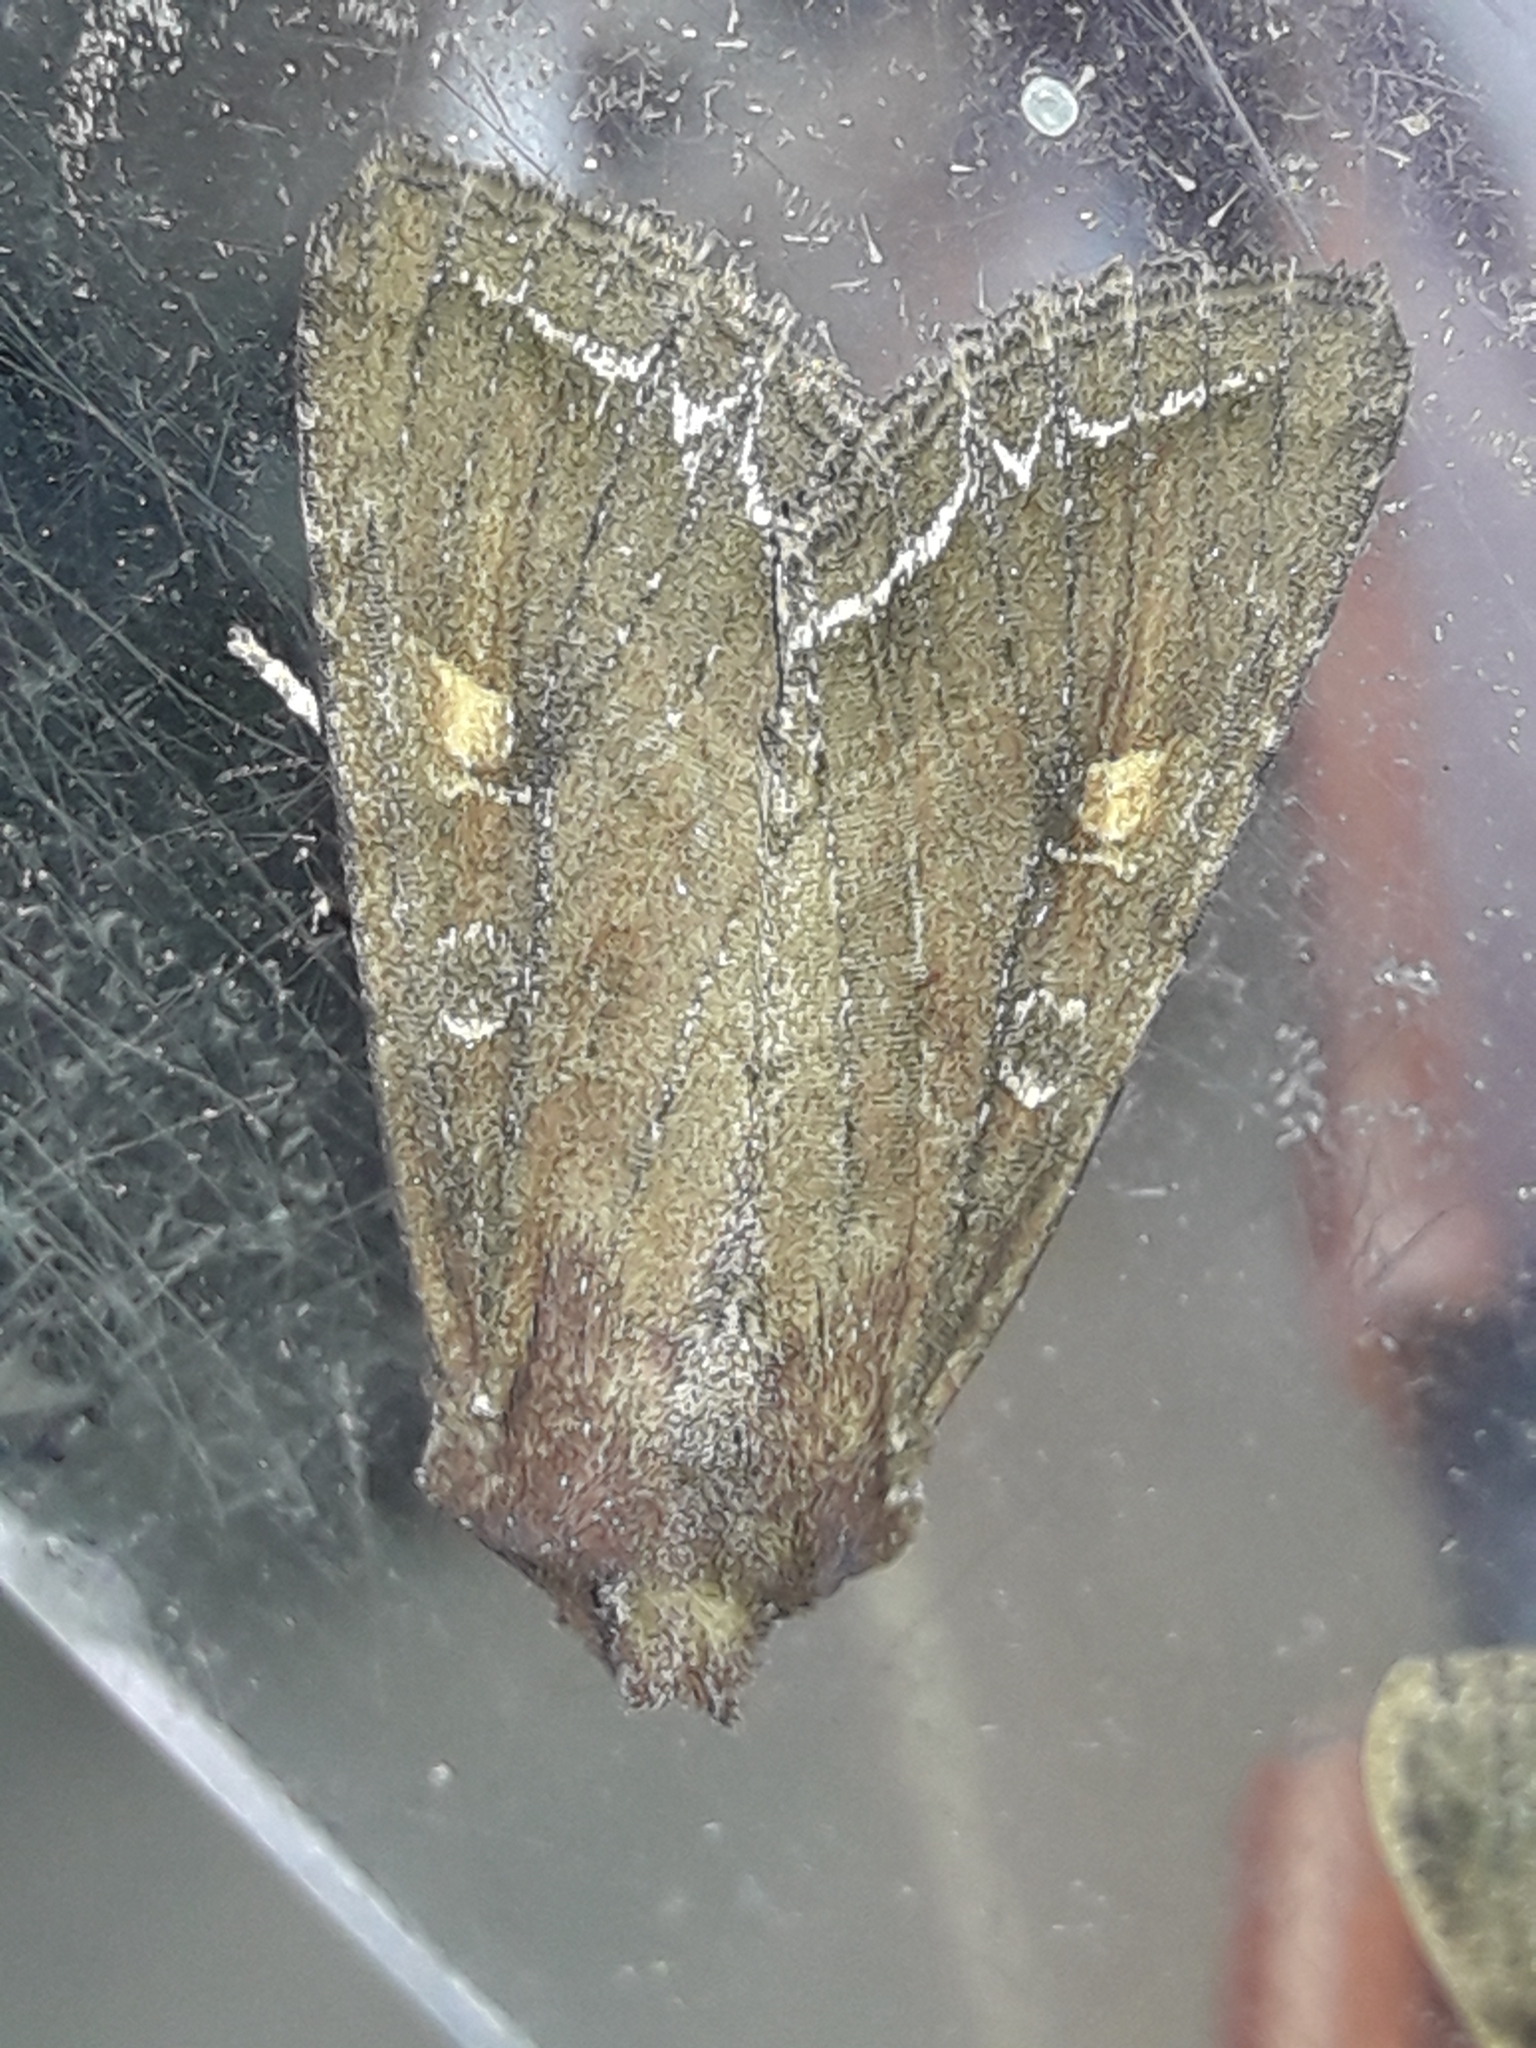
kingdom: Animalia
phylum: Arthropoda
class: Insecta
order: Lepidoptera
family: Noctuidae
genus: Lacanobia
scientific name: Lacanobia oleracea
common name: Bright-line brown-eye
